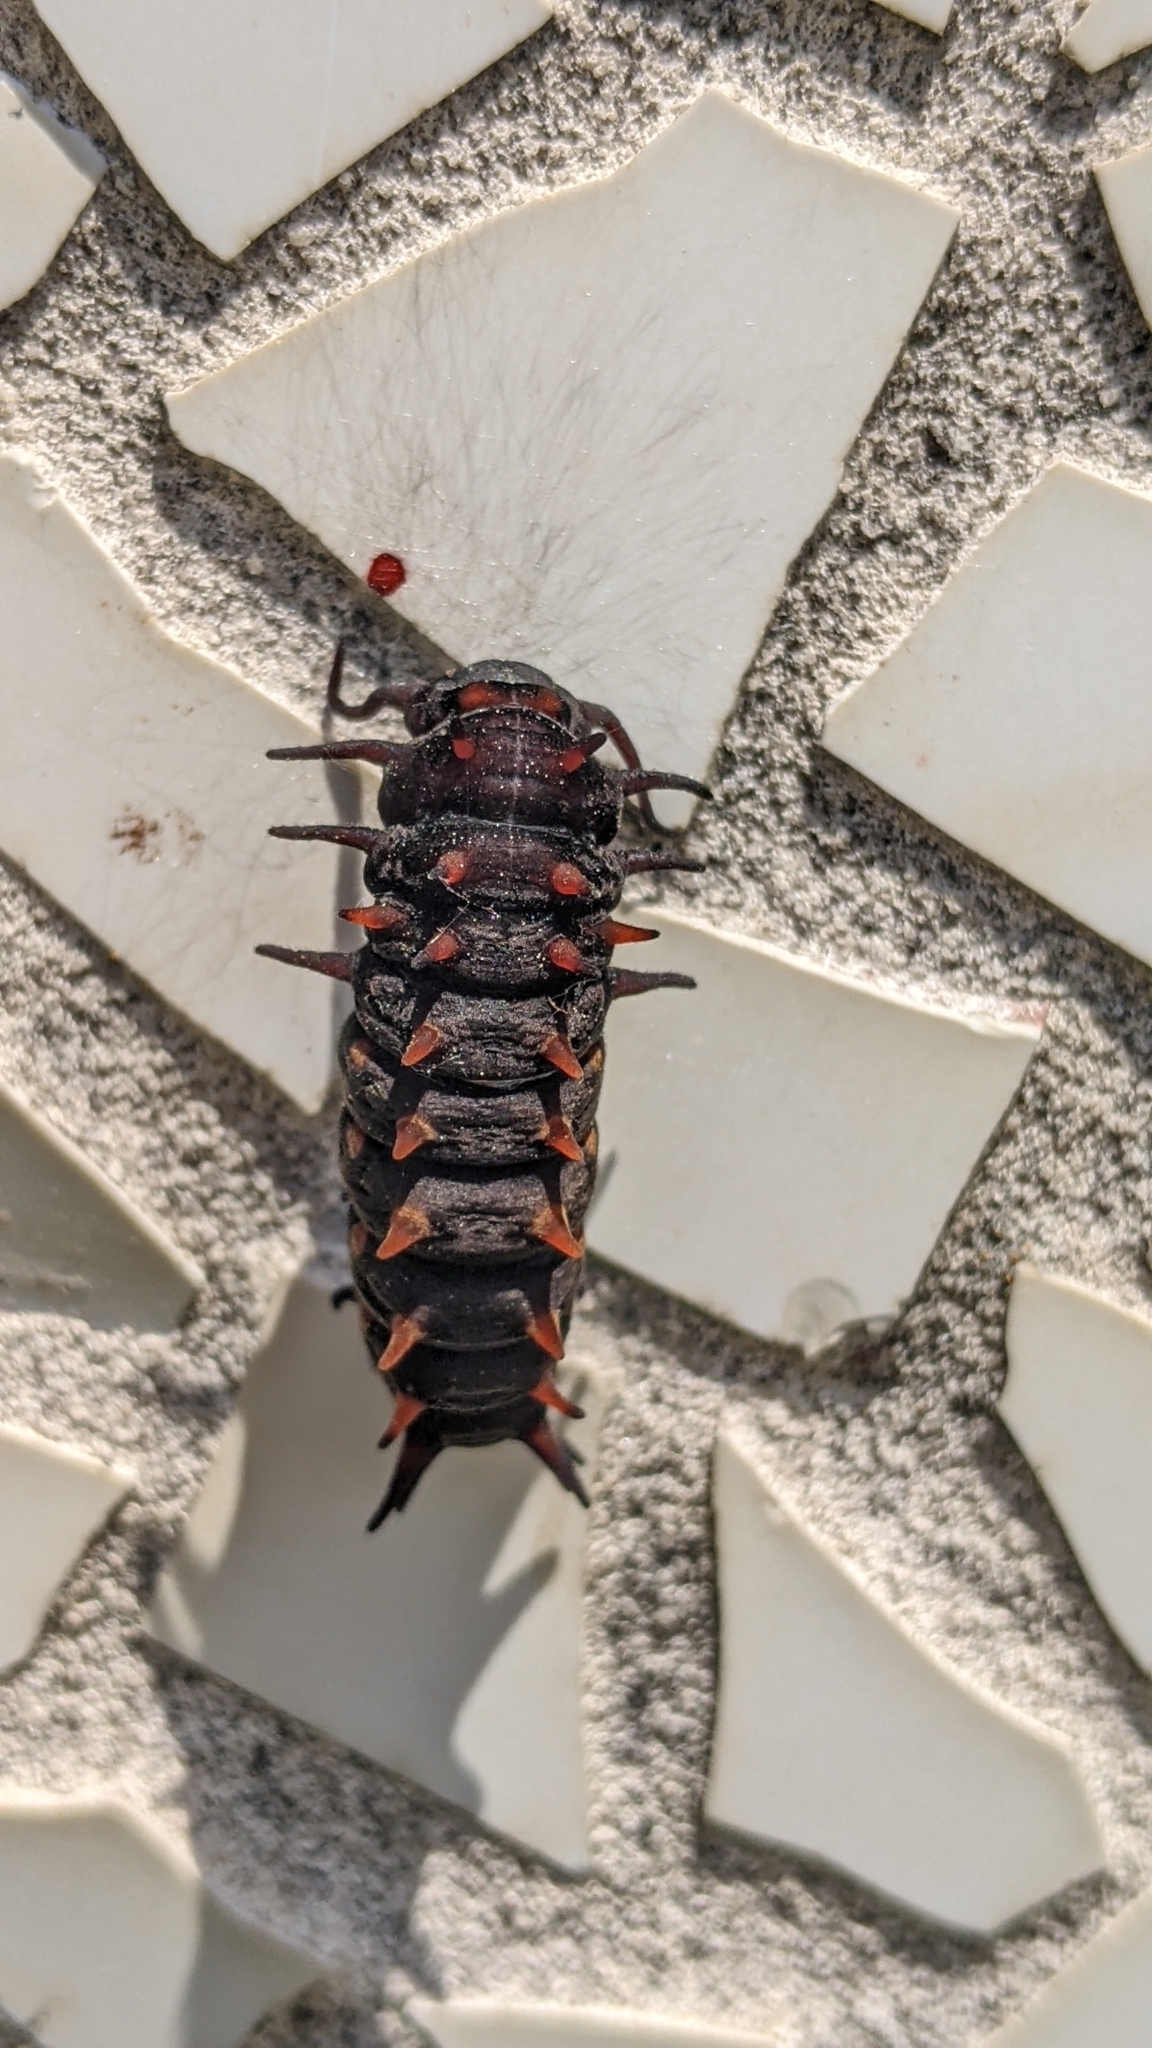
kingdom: Animalia
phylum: Arthropoda
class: Insecta
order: Lepidoptera
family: Papilionidae
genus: Battus
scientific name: Battus philenor
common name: Pipevine swallowtail
